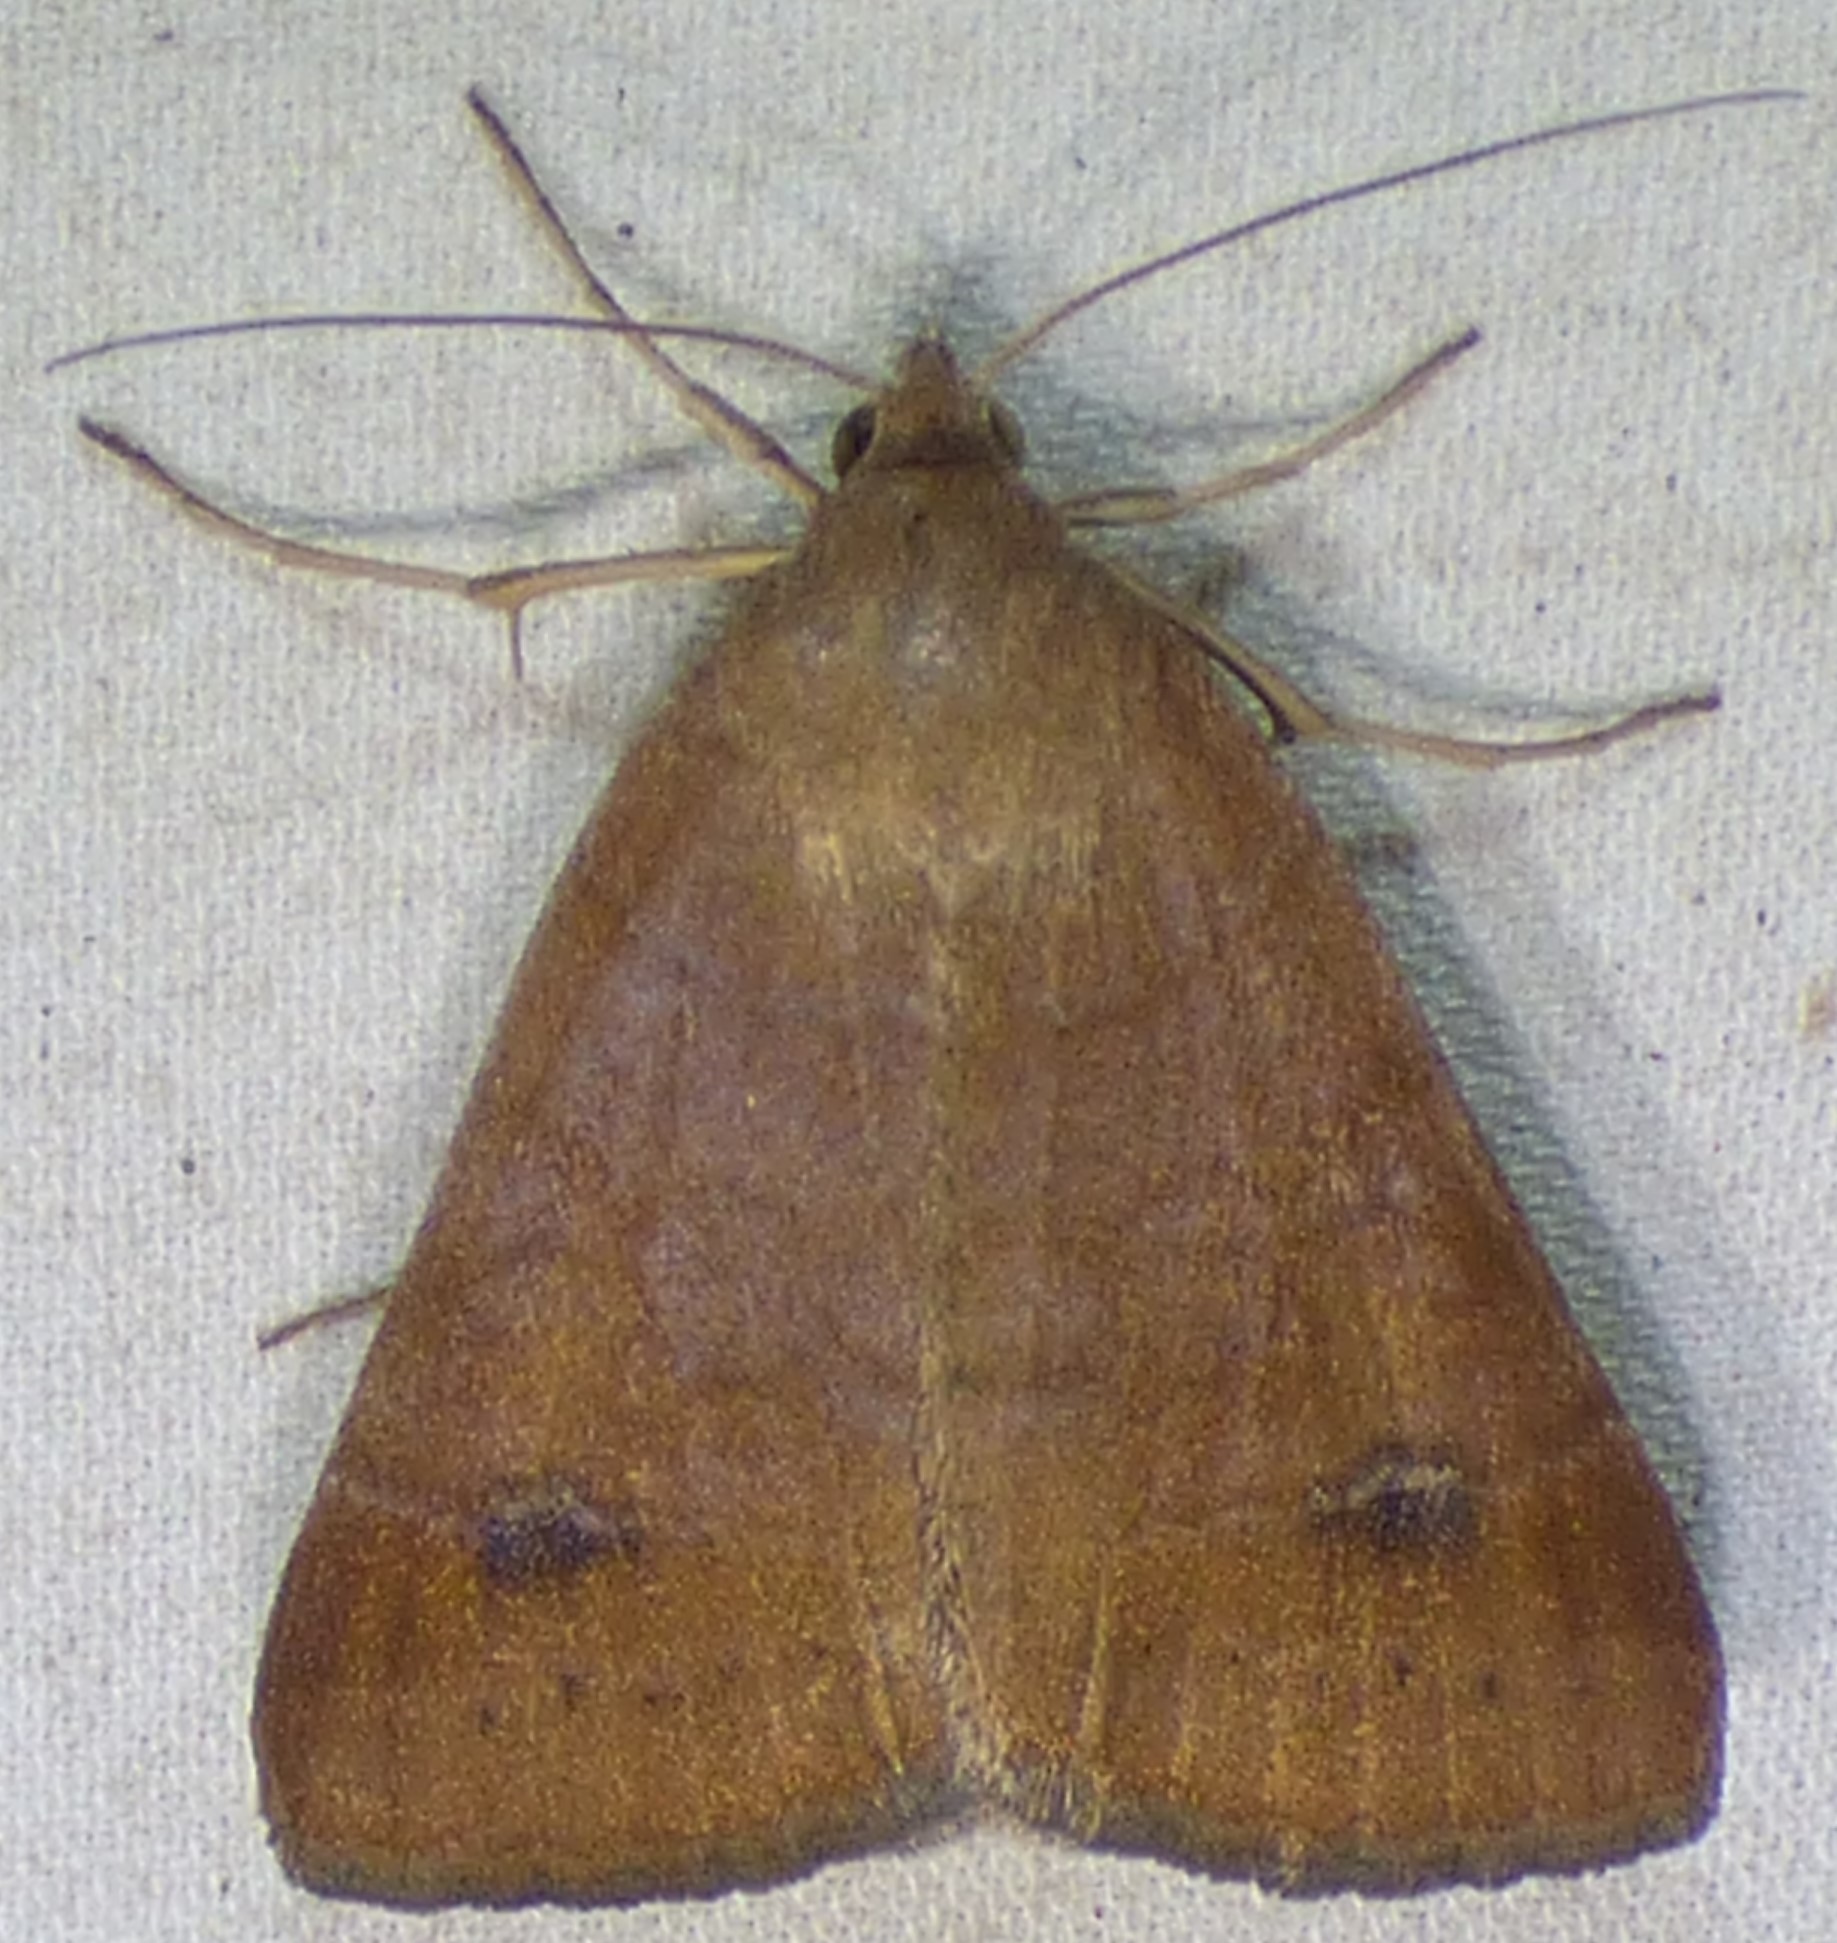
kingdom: Animalia
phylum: Arthropoda
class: Insecta
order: Lepidoptera
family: Erebidae
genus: Caenurgia
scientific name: Caenurgia chloropha
